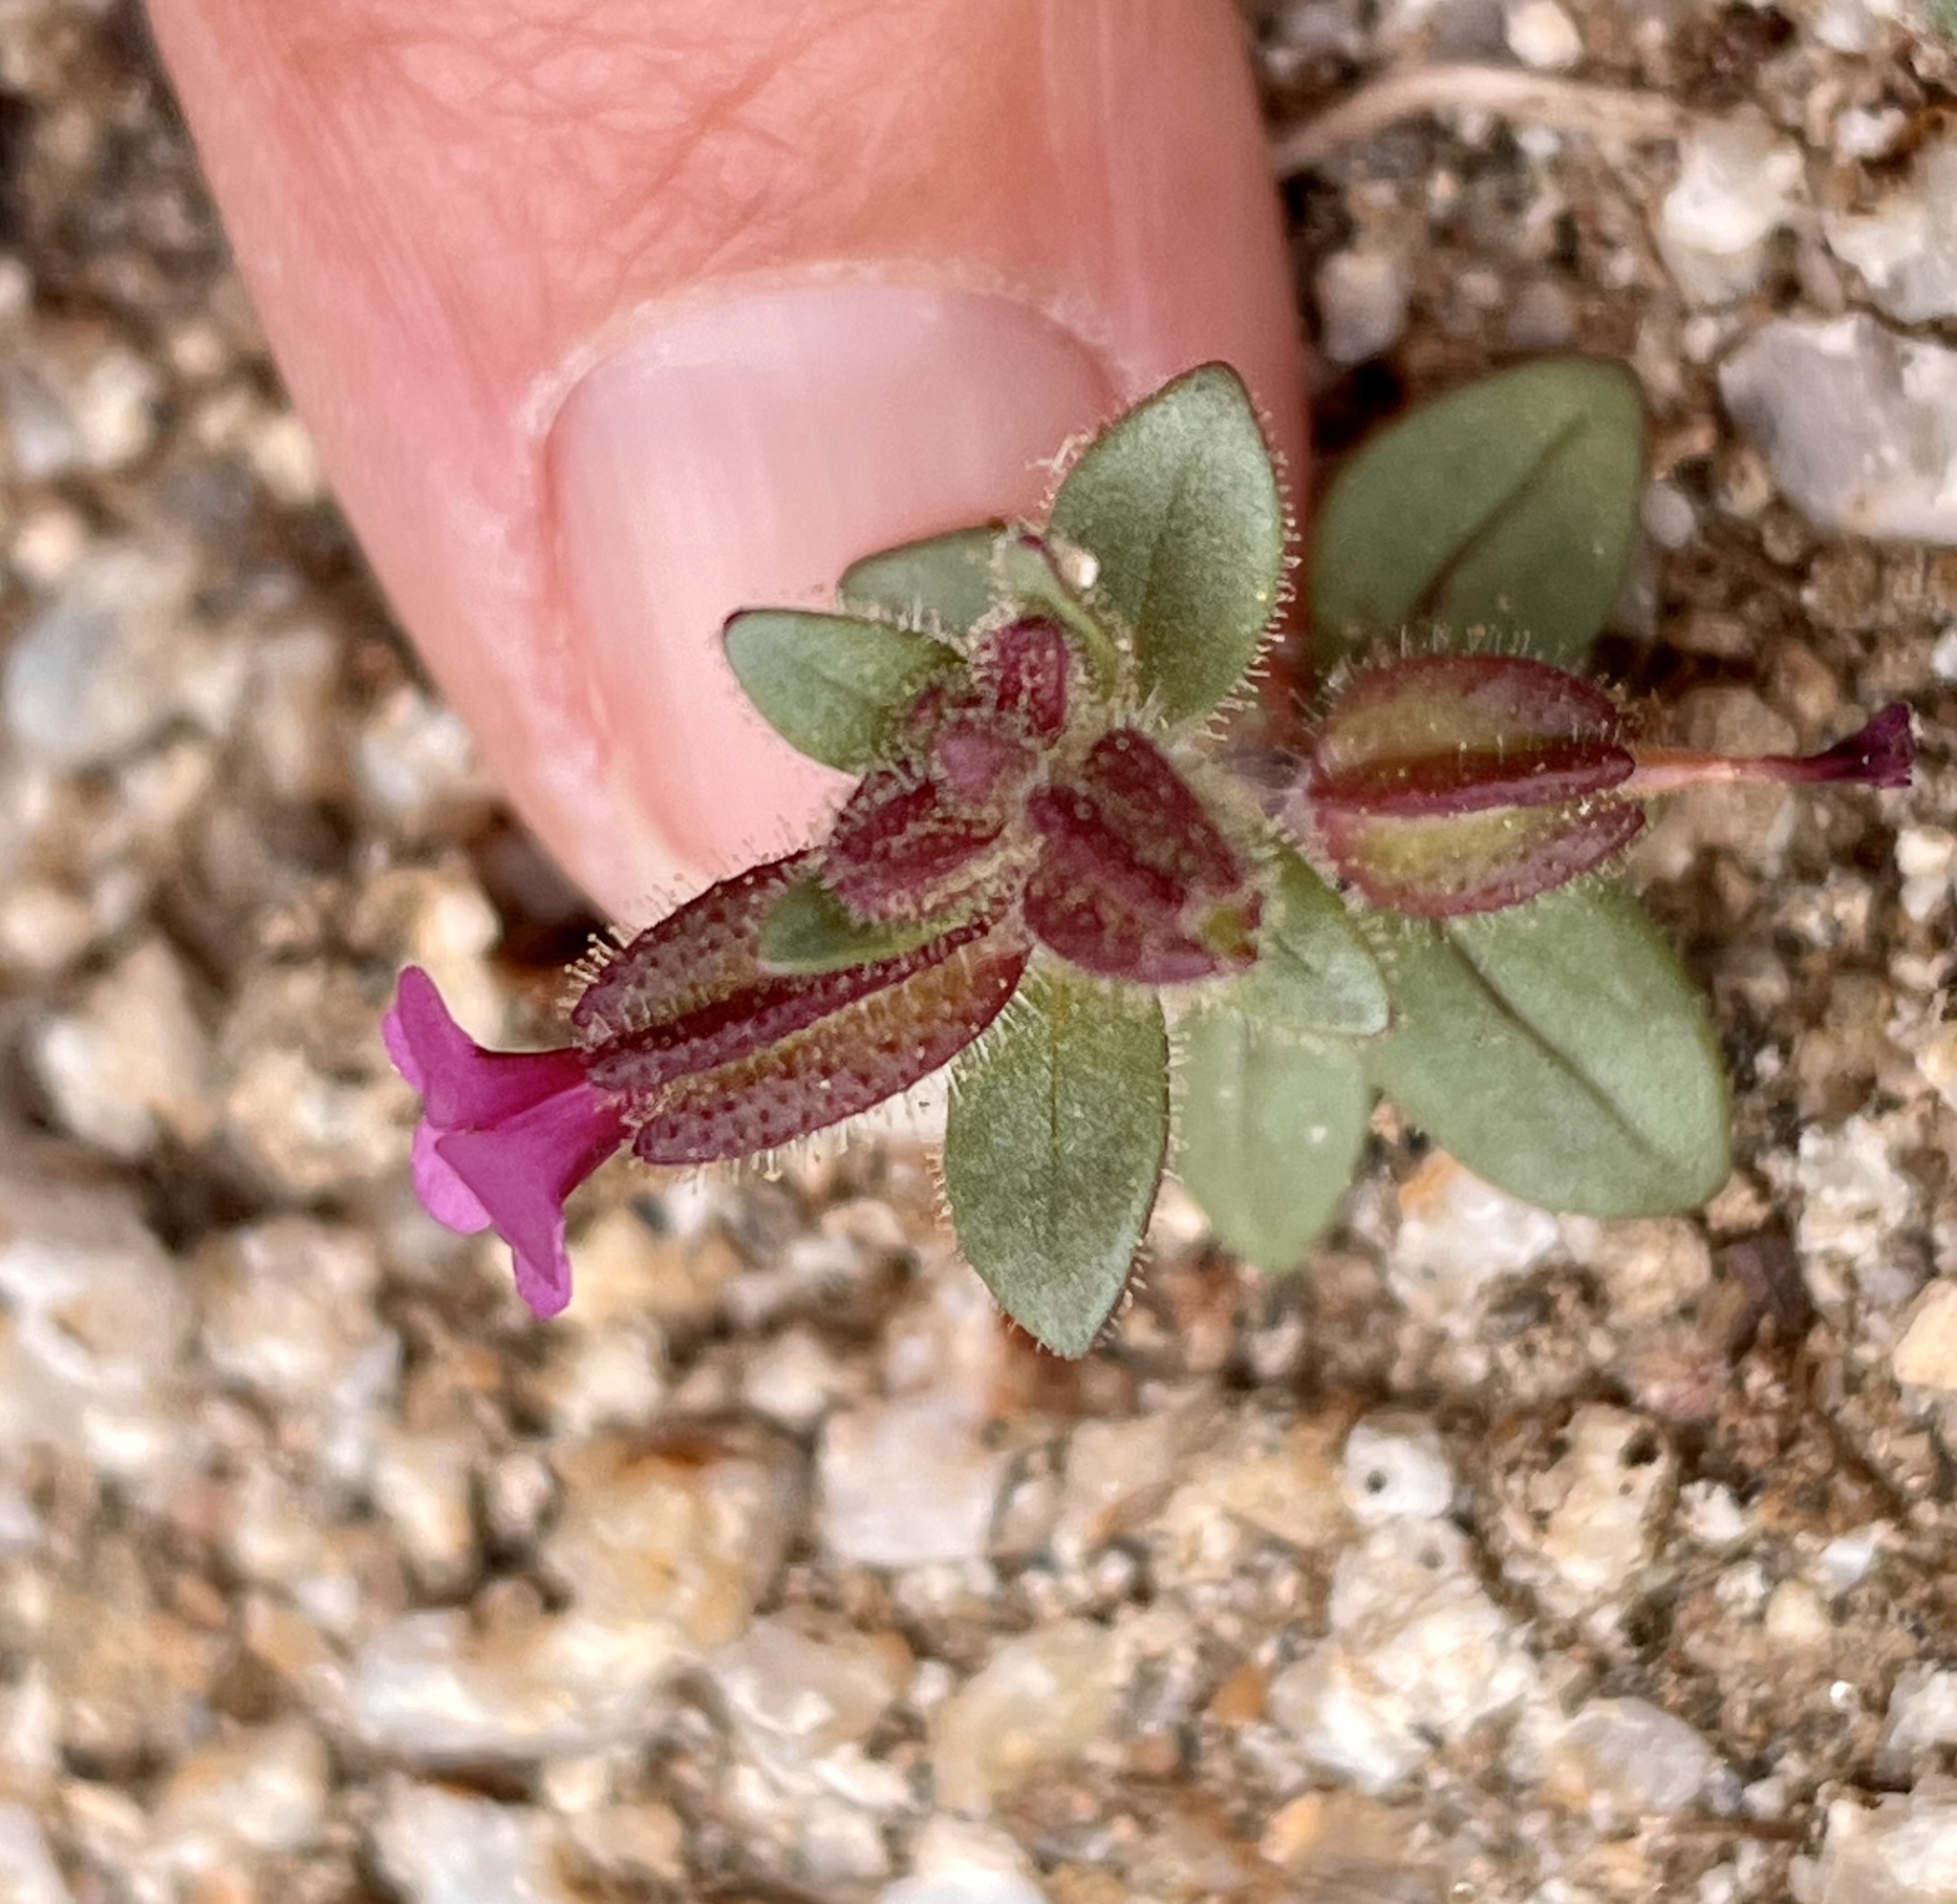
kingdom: Plantae
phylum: Tracheophyta
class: Magnoliopsida
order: Lamiales
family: Phrymaceae
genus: Diplacus
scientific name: Diplacus rattanii
